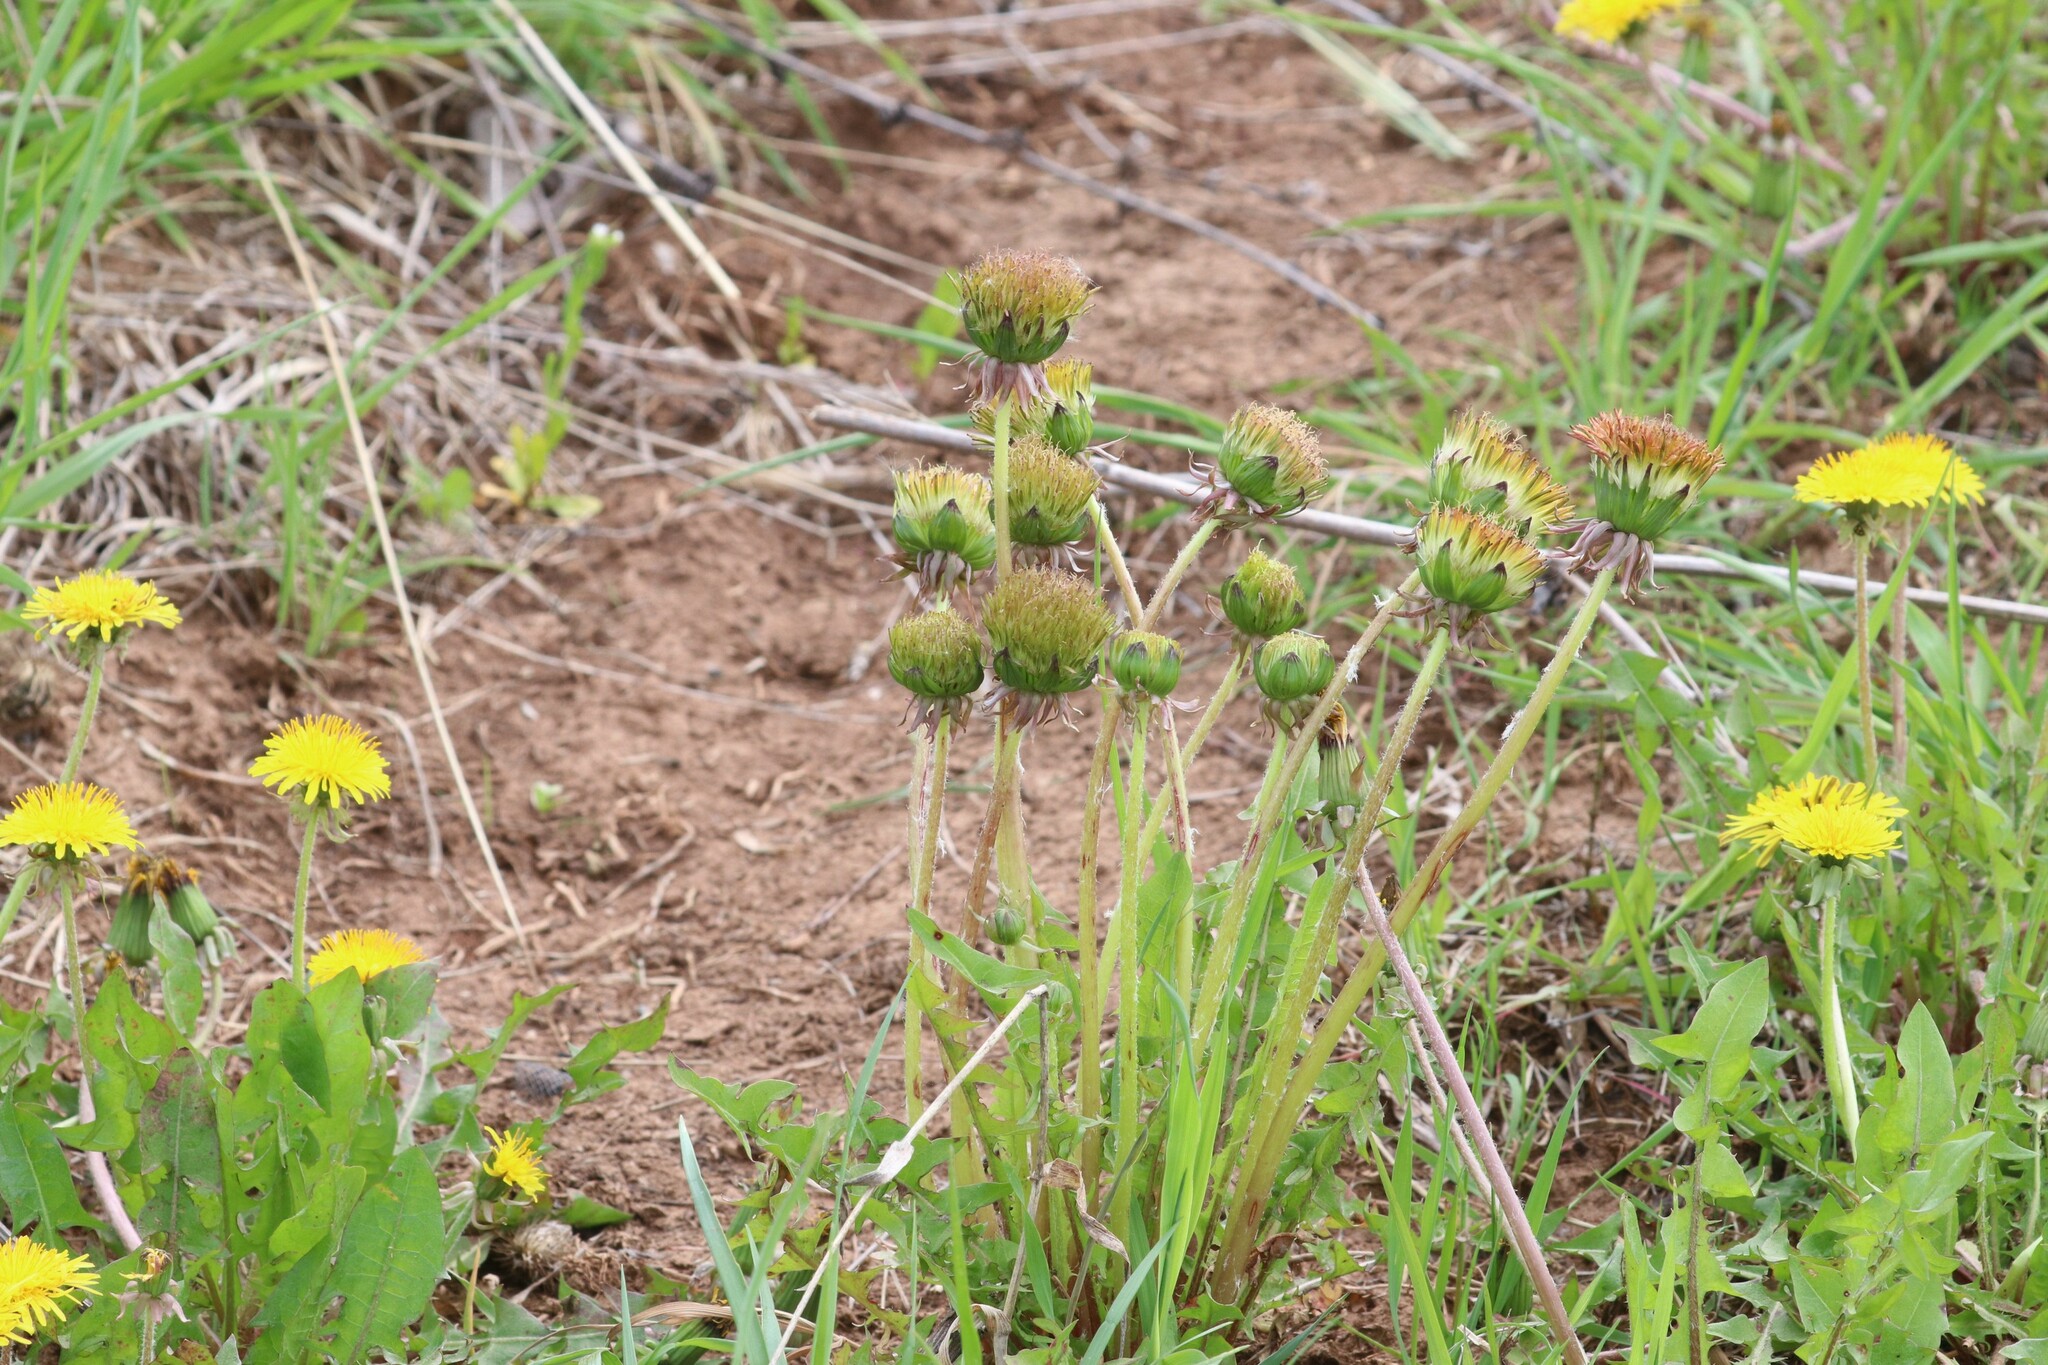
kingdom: Plantae
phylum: Tracheophyta
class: Magnoliopsida
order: Asterales
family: Asteraceae
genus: Taraxacum
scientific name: Taraxacum officinale
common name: Common dandelion
